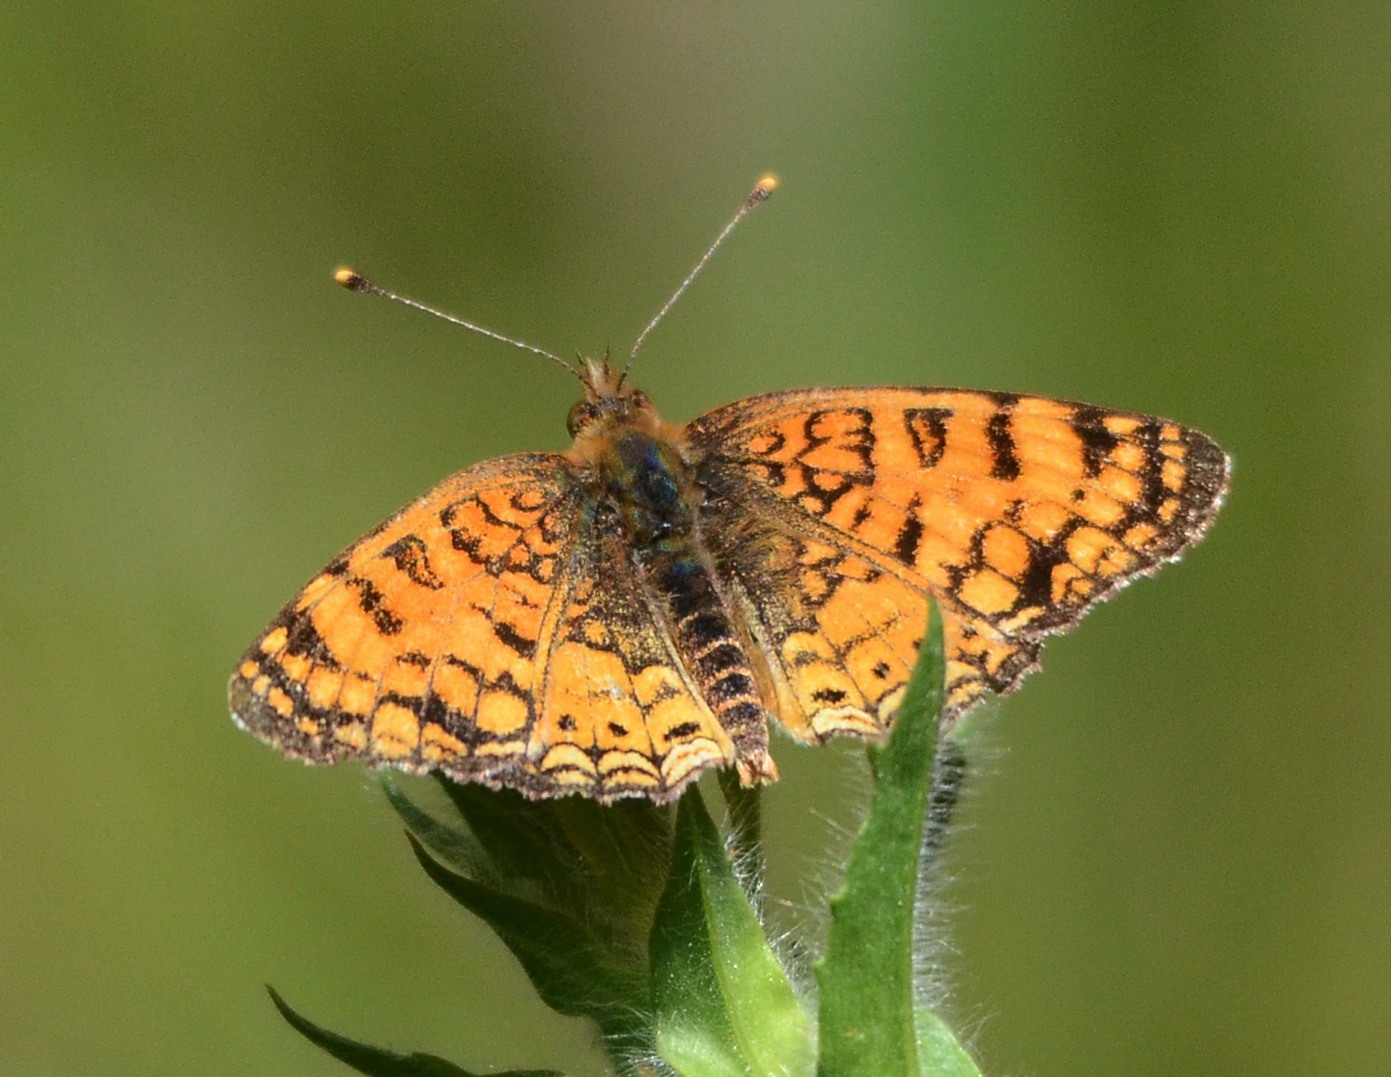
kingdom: Animalia
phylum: Arthropoda
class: Insecta
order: Lepidoptera
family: Nymphalidae
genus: Eresia
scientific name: Eresia aveyrona
